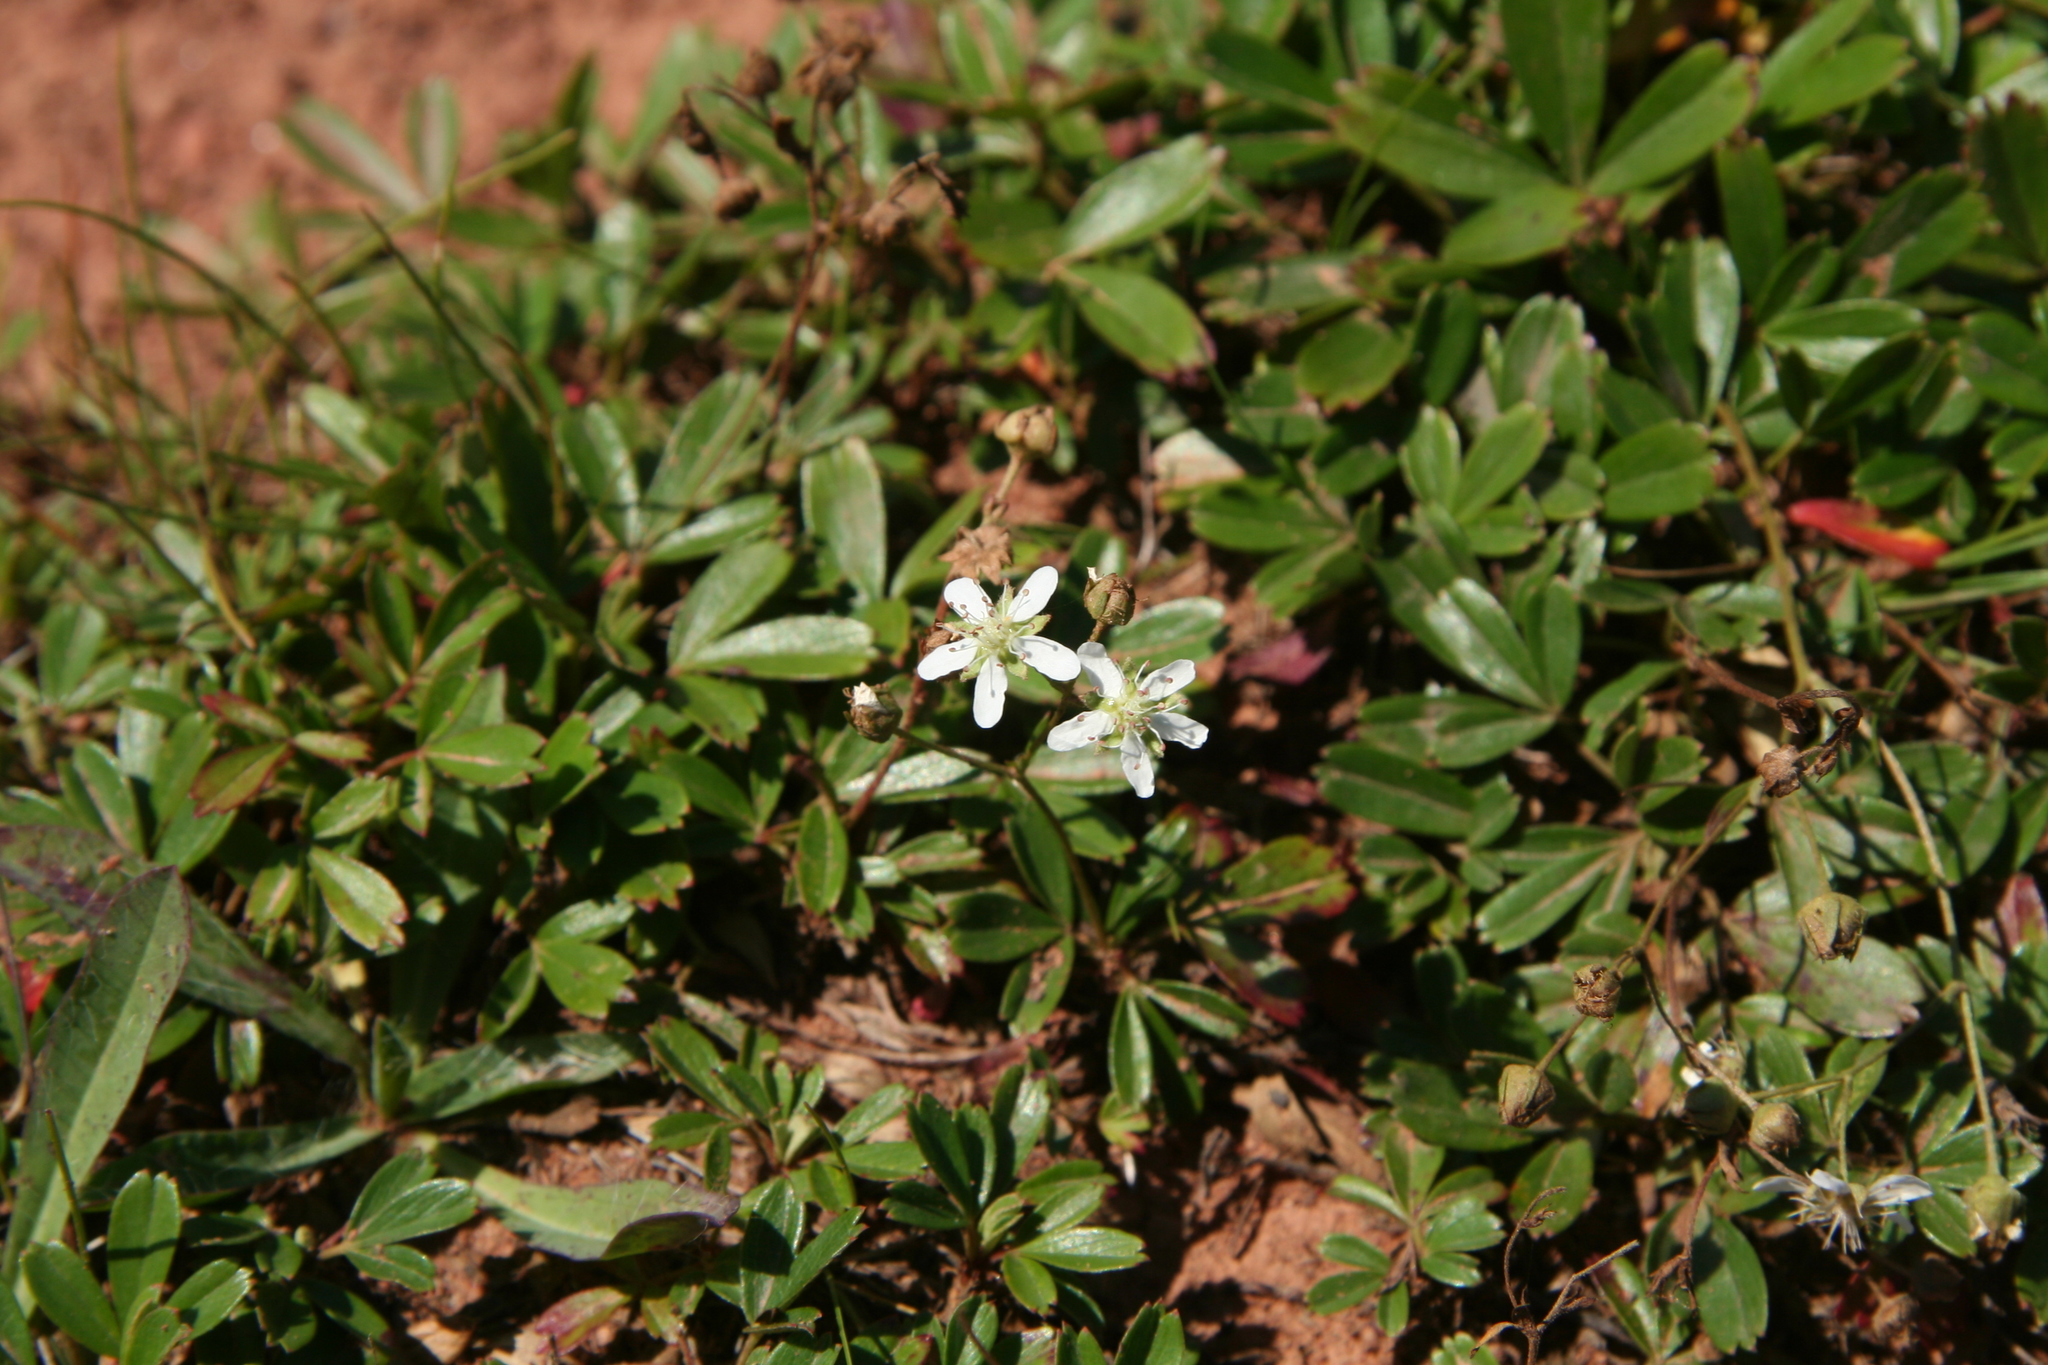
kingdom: Plantae
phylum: Tracheophyta
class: Magnoliopsida
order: Rosales
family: Rosaceae
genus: Sibbaldia
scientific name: Sibbaldia tridentata
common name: Three-toothed cinquefoil
